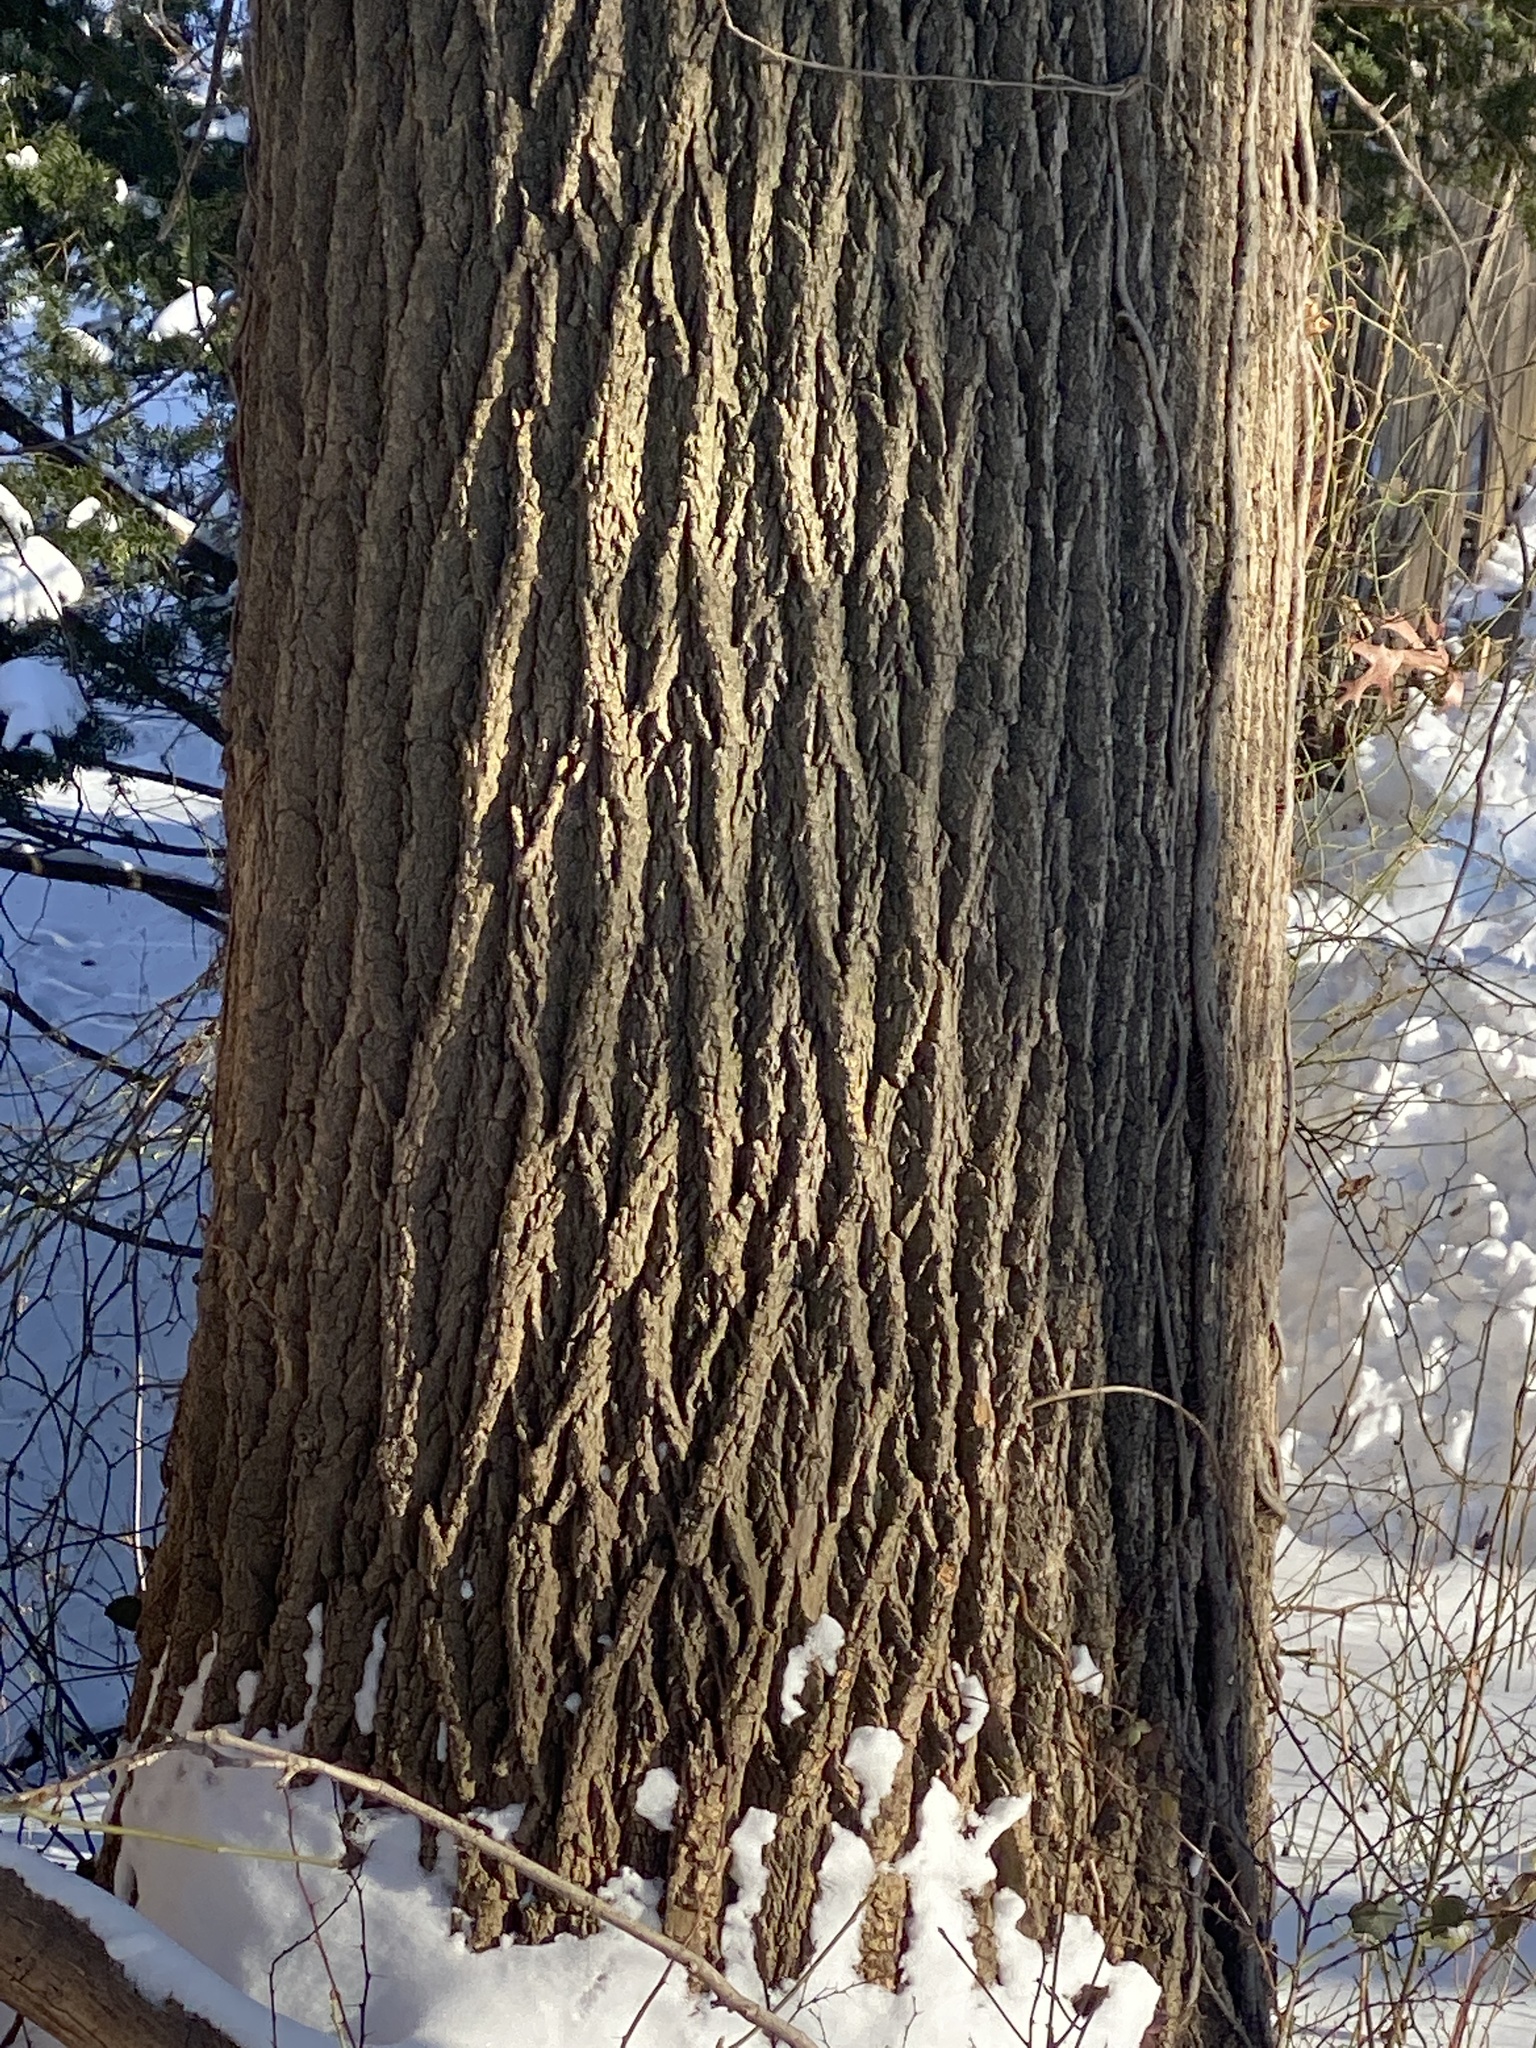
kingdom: Plantae
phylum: Tracheophyta
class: Magnoliopsida
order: Magnoliales
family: Magnoliaceae
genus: Liriodendron
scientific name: Liriodendron tulipifera
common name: Tulip tree
